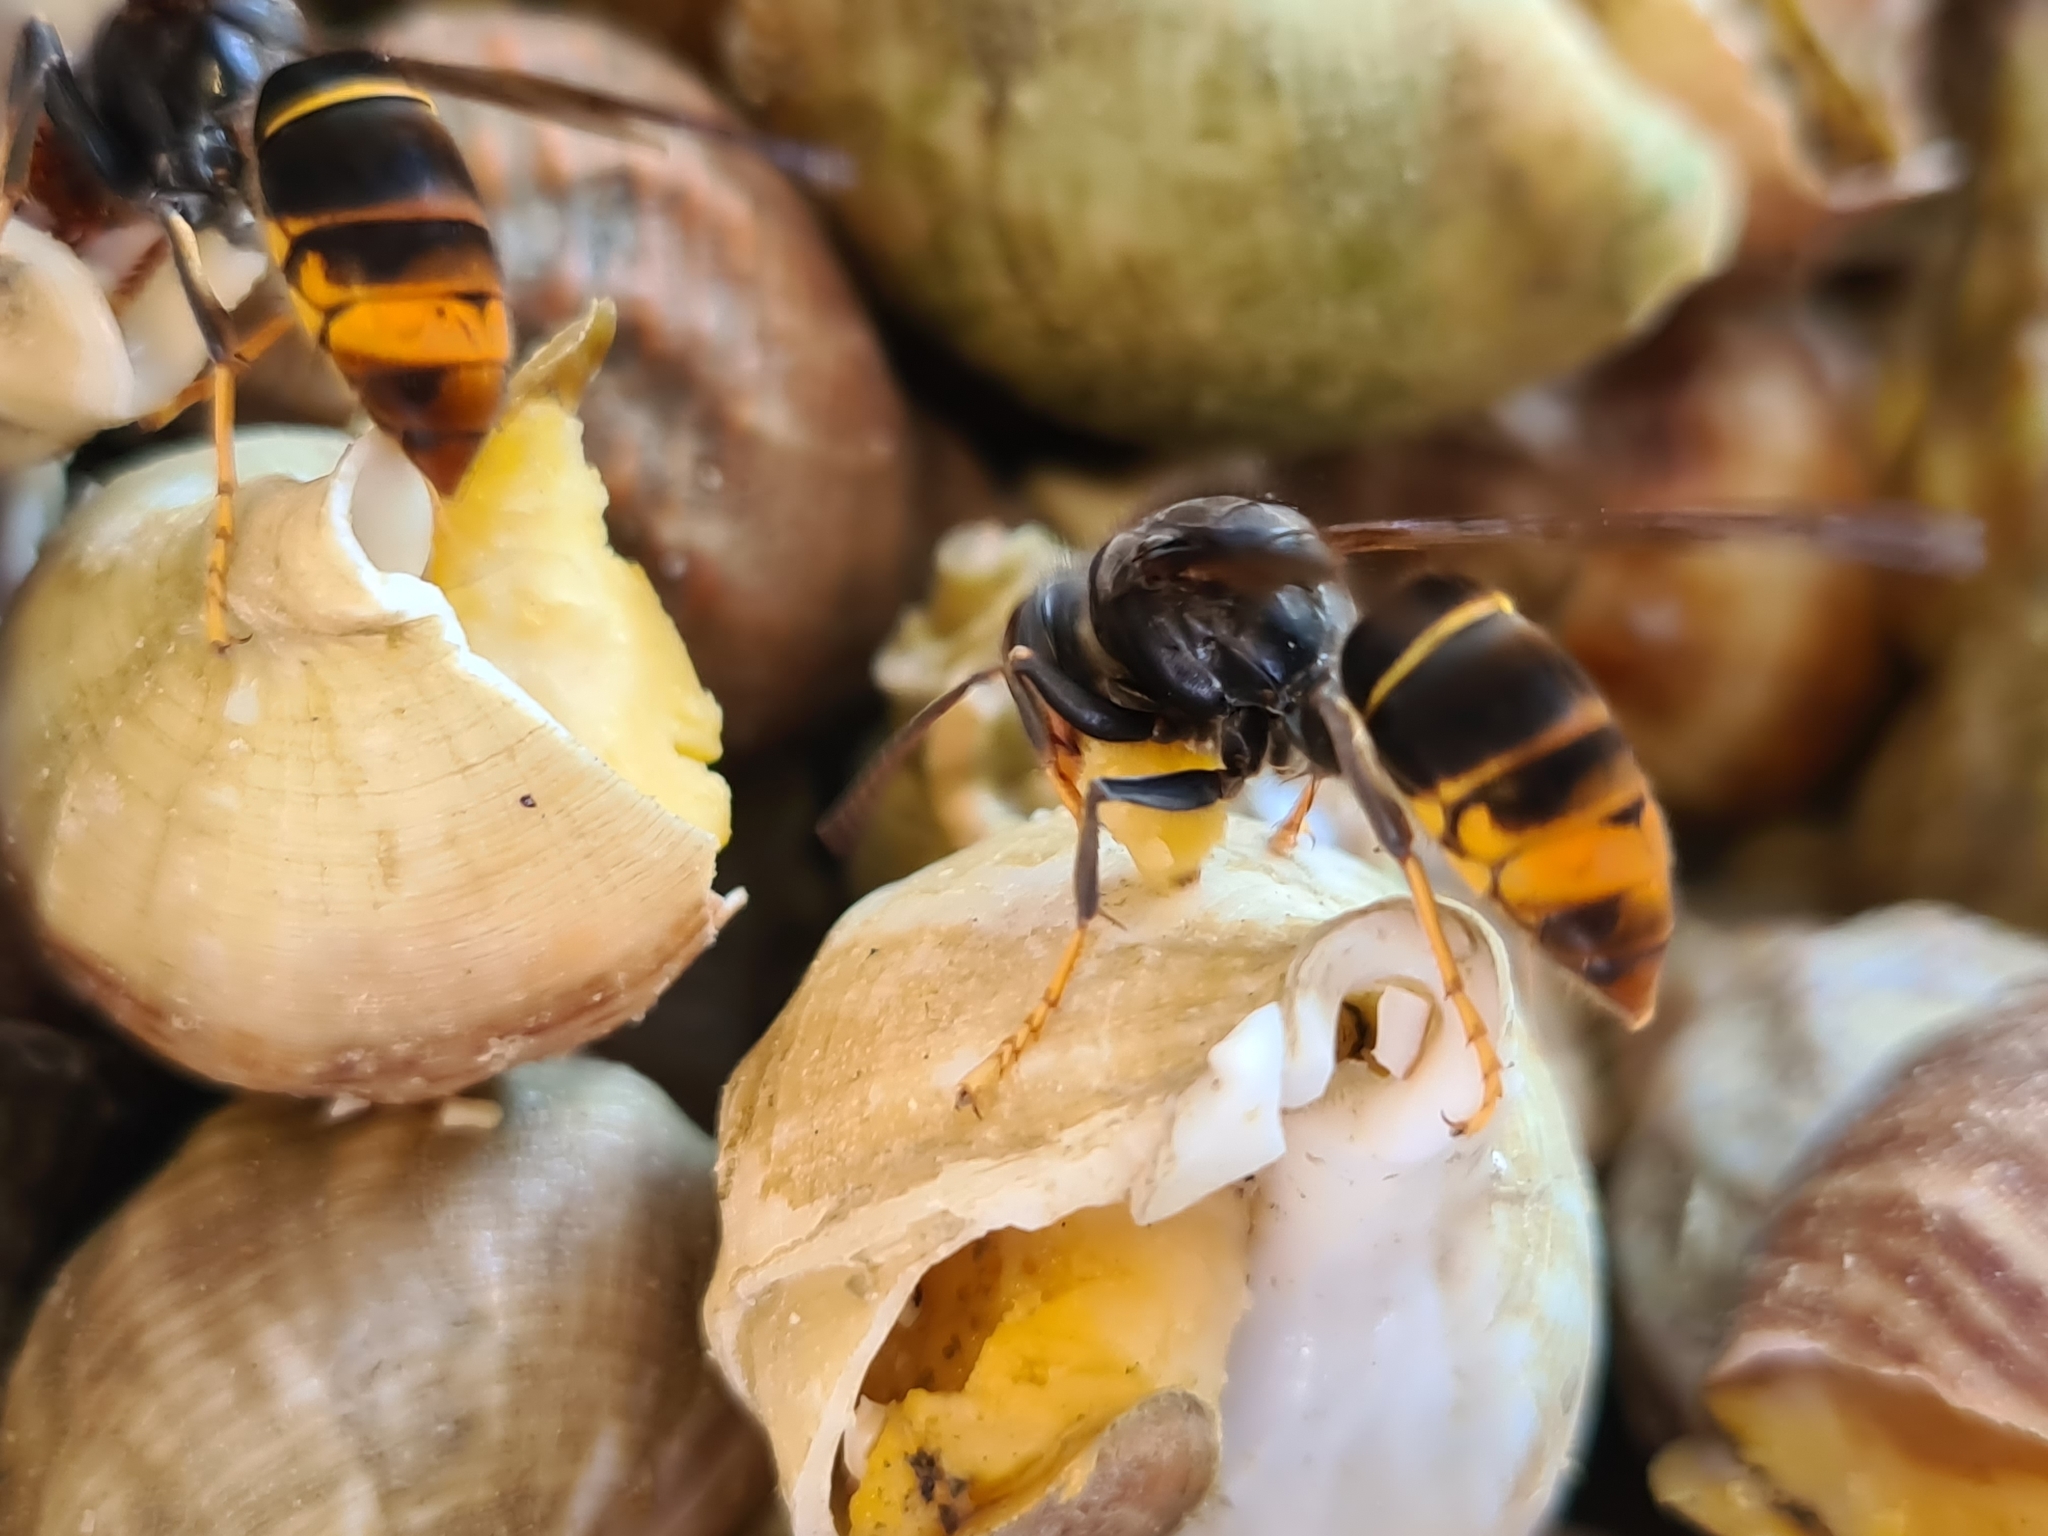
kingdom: Animalia
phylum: Arthropoda
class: Insecta
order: Hymenoptera
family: Vespidae
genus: Vespa
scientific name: Vespa velutina
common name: Asian hornet
